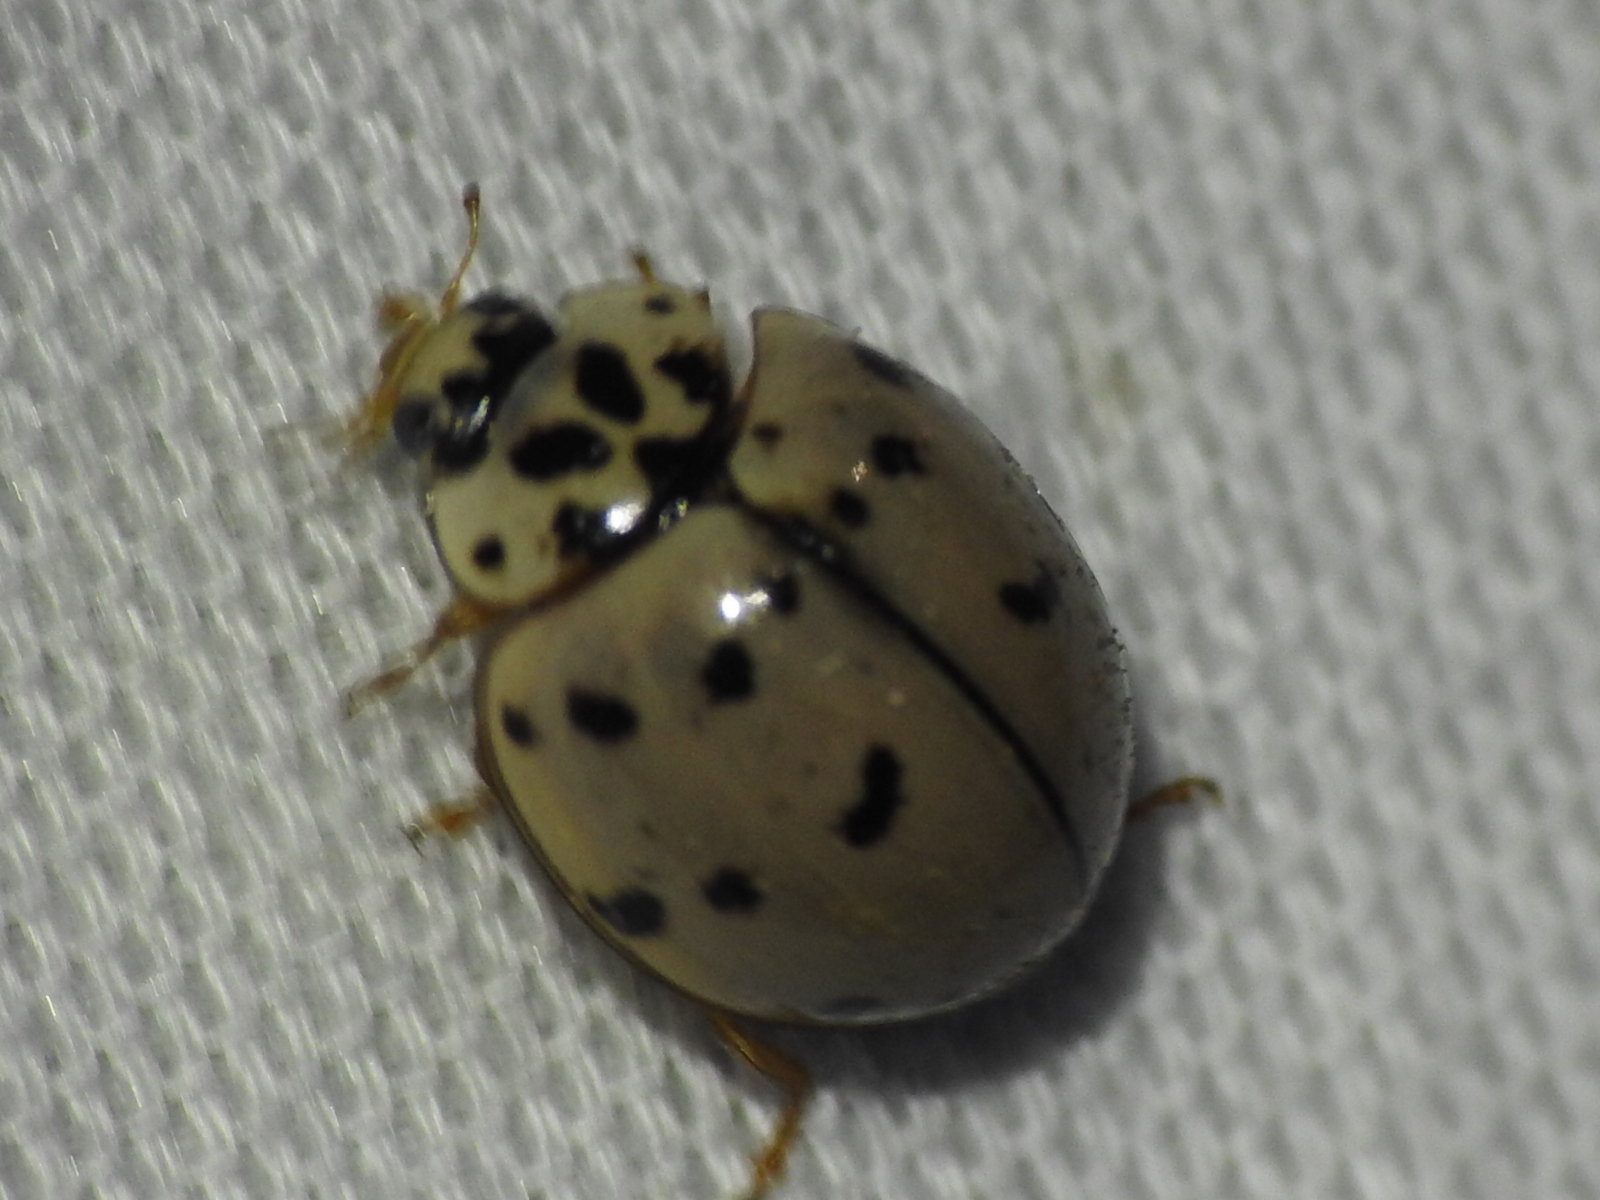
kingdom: Animalia
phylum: Arthropoda
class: Insecta
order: Coleoptera
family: Coccinellidae
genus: Olla
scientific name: Olla v-nigrum
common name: Ashy gray lady beetle
